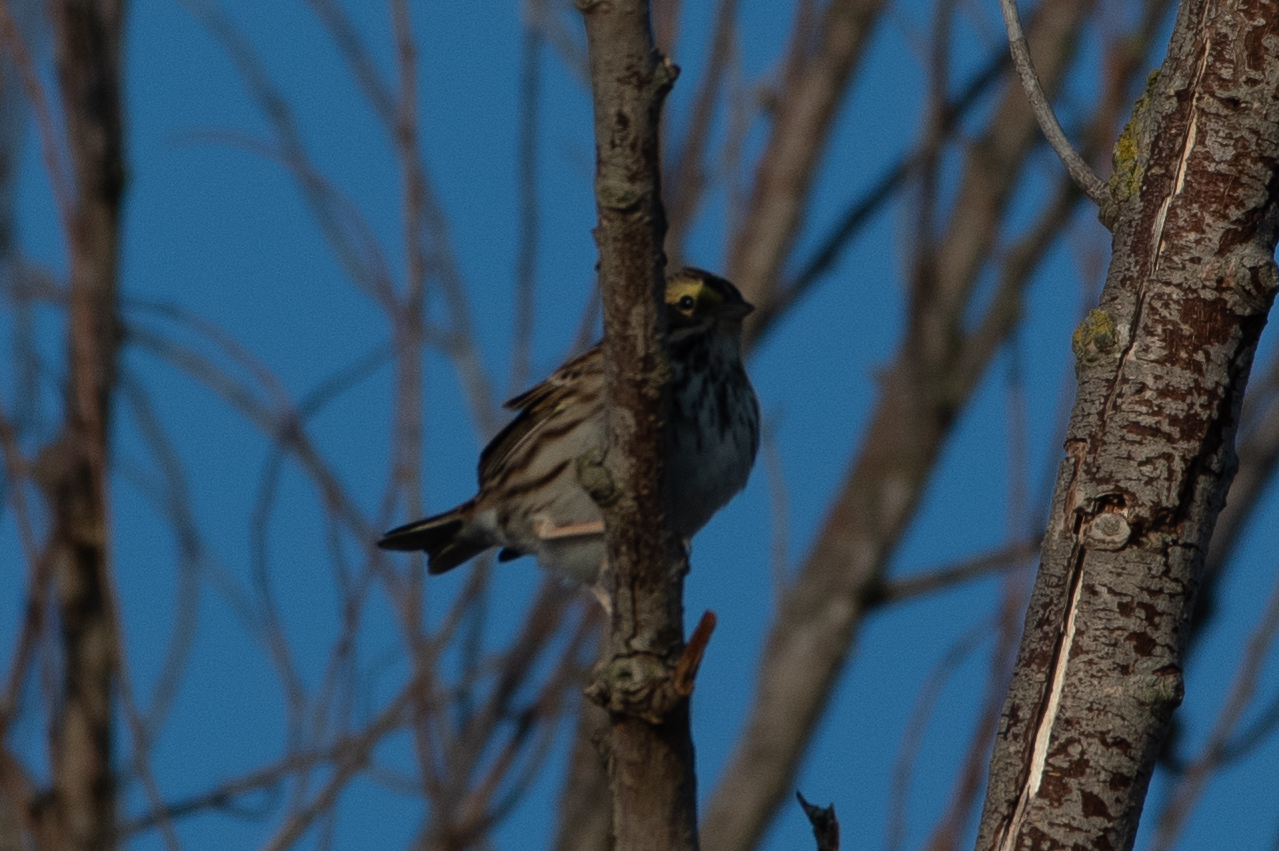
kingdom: Animalia
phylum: Chordata
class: Aves
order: Passeriformes
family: Passerellidae
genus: Passerculus
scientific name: Passerculus sandwichensis
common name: Savannah sparrow
